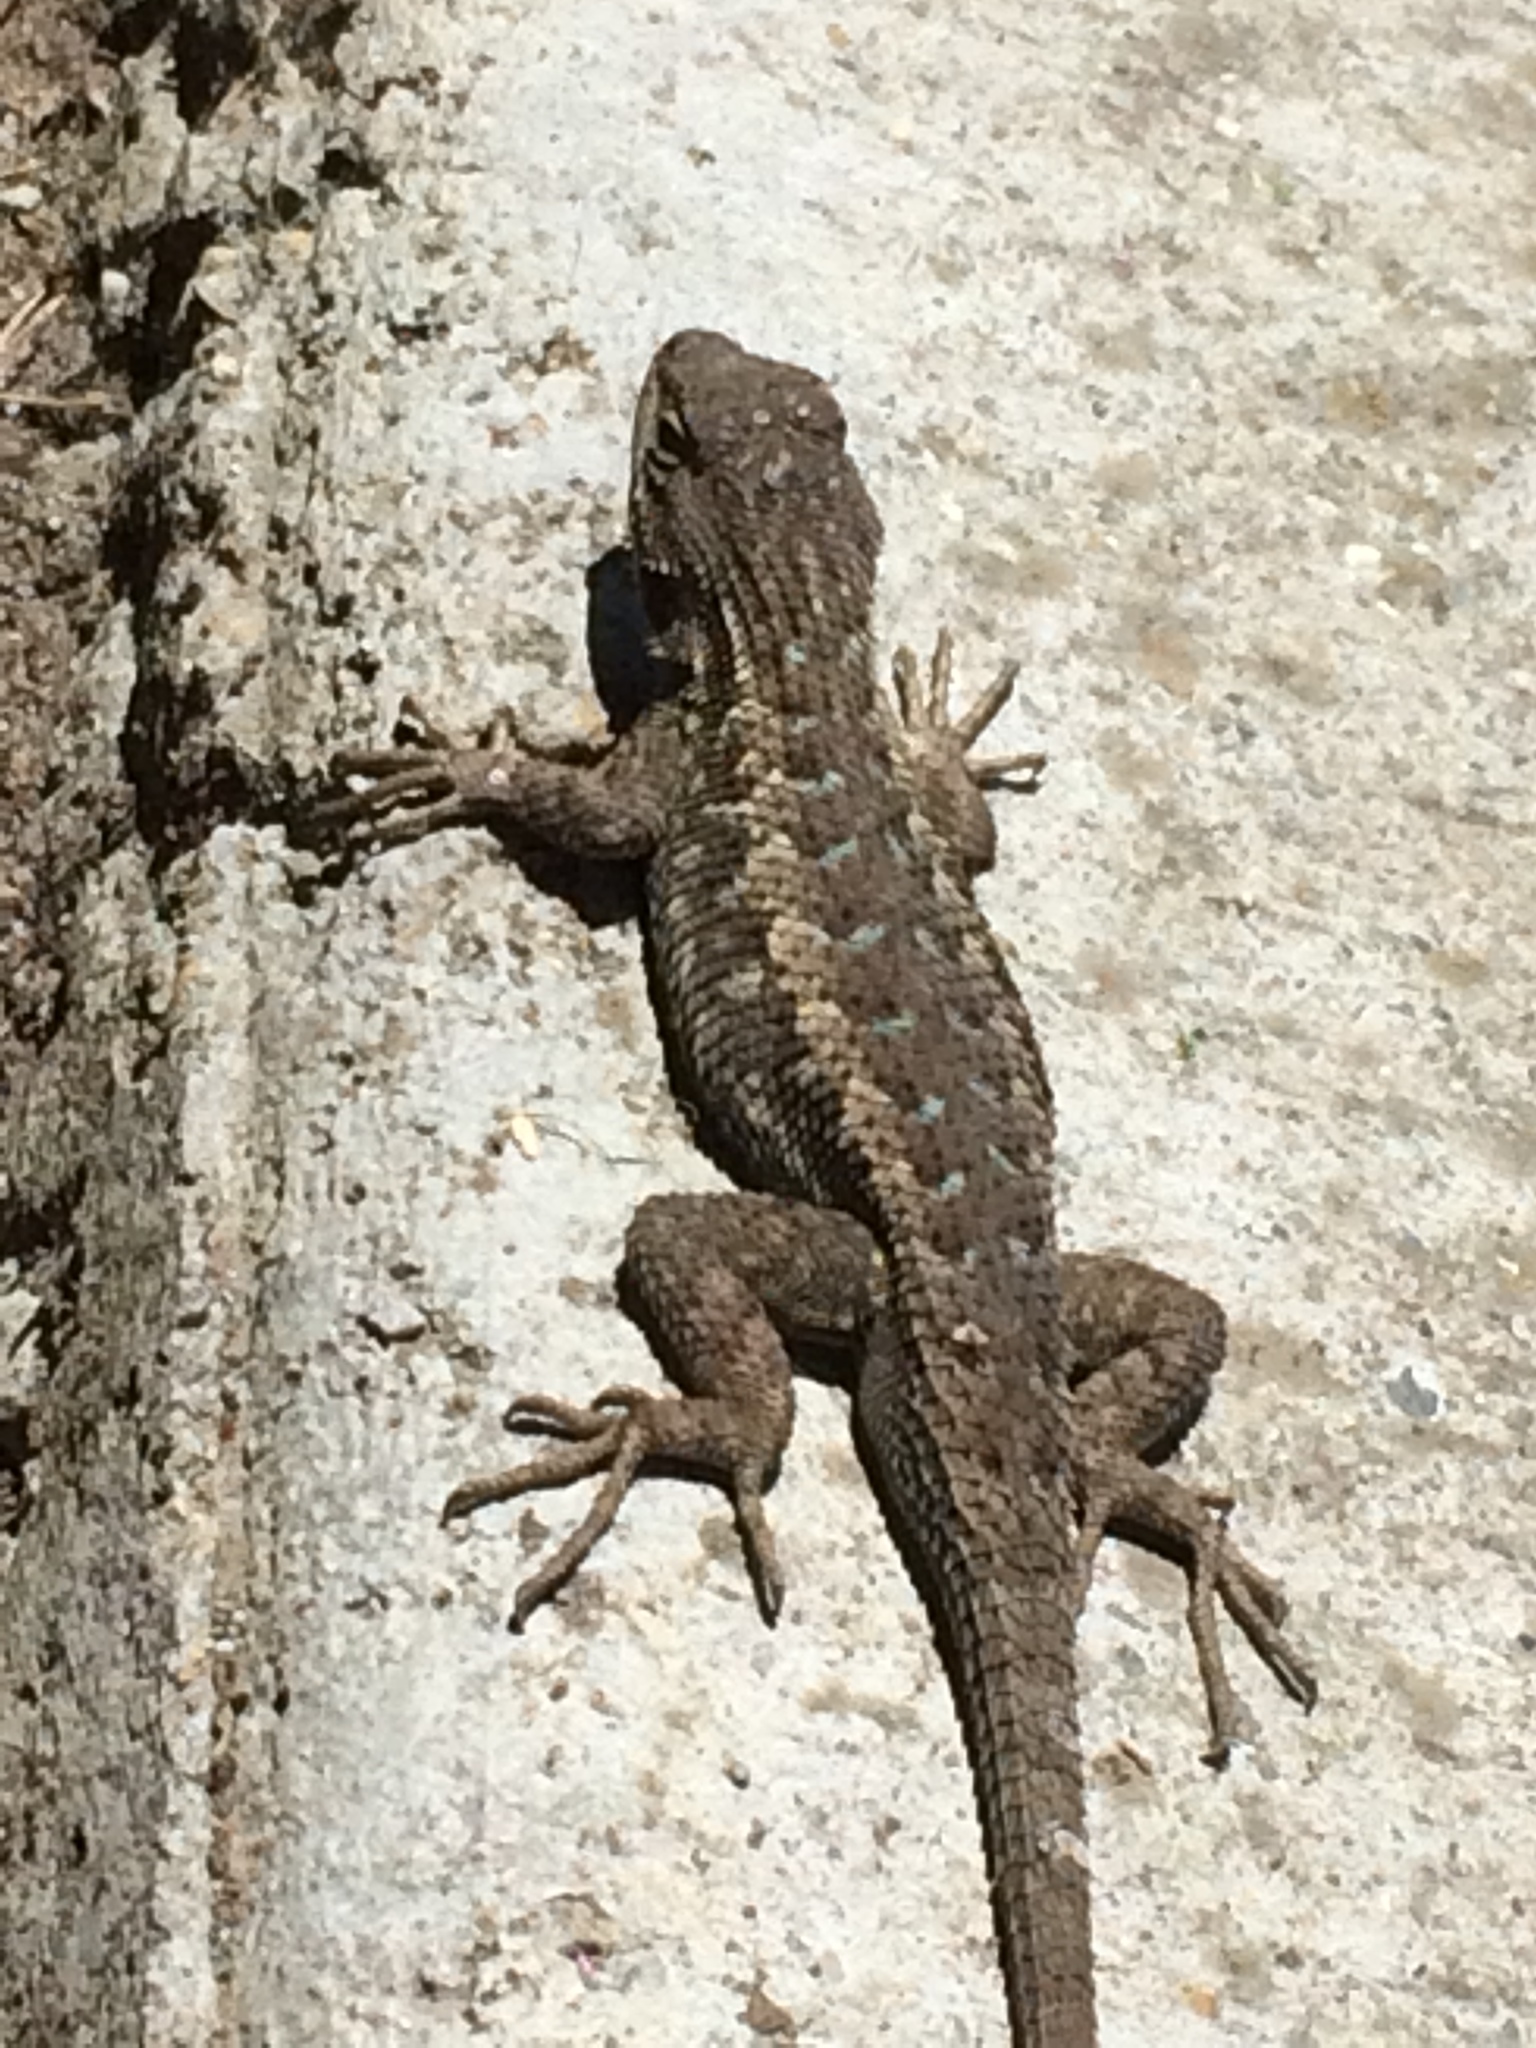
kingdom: Animalia
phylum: Chordata
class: Squamata
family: Phrynosomatidae
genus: Sceloporus
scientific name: Sceloporus occidentalis
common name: Western fence lizard
